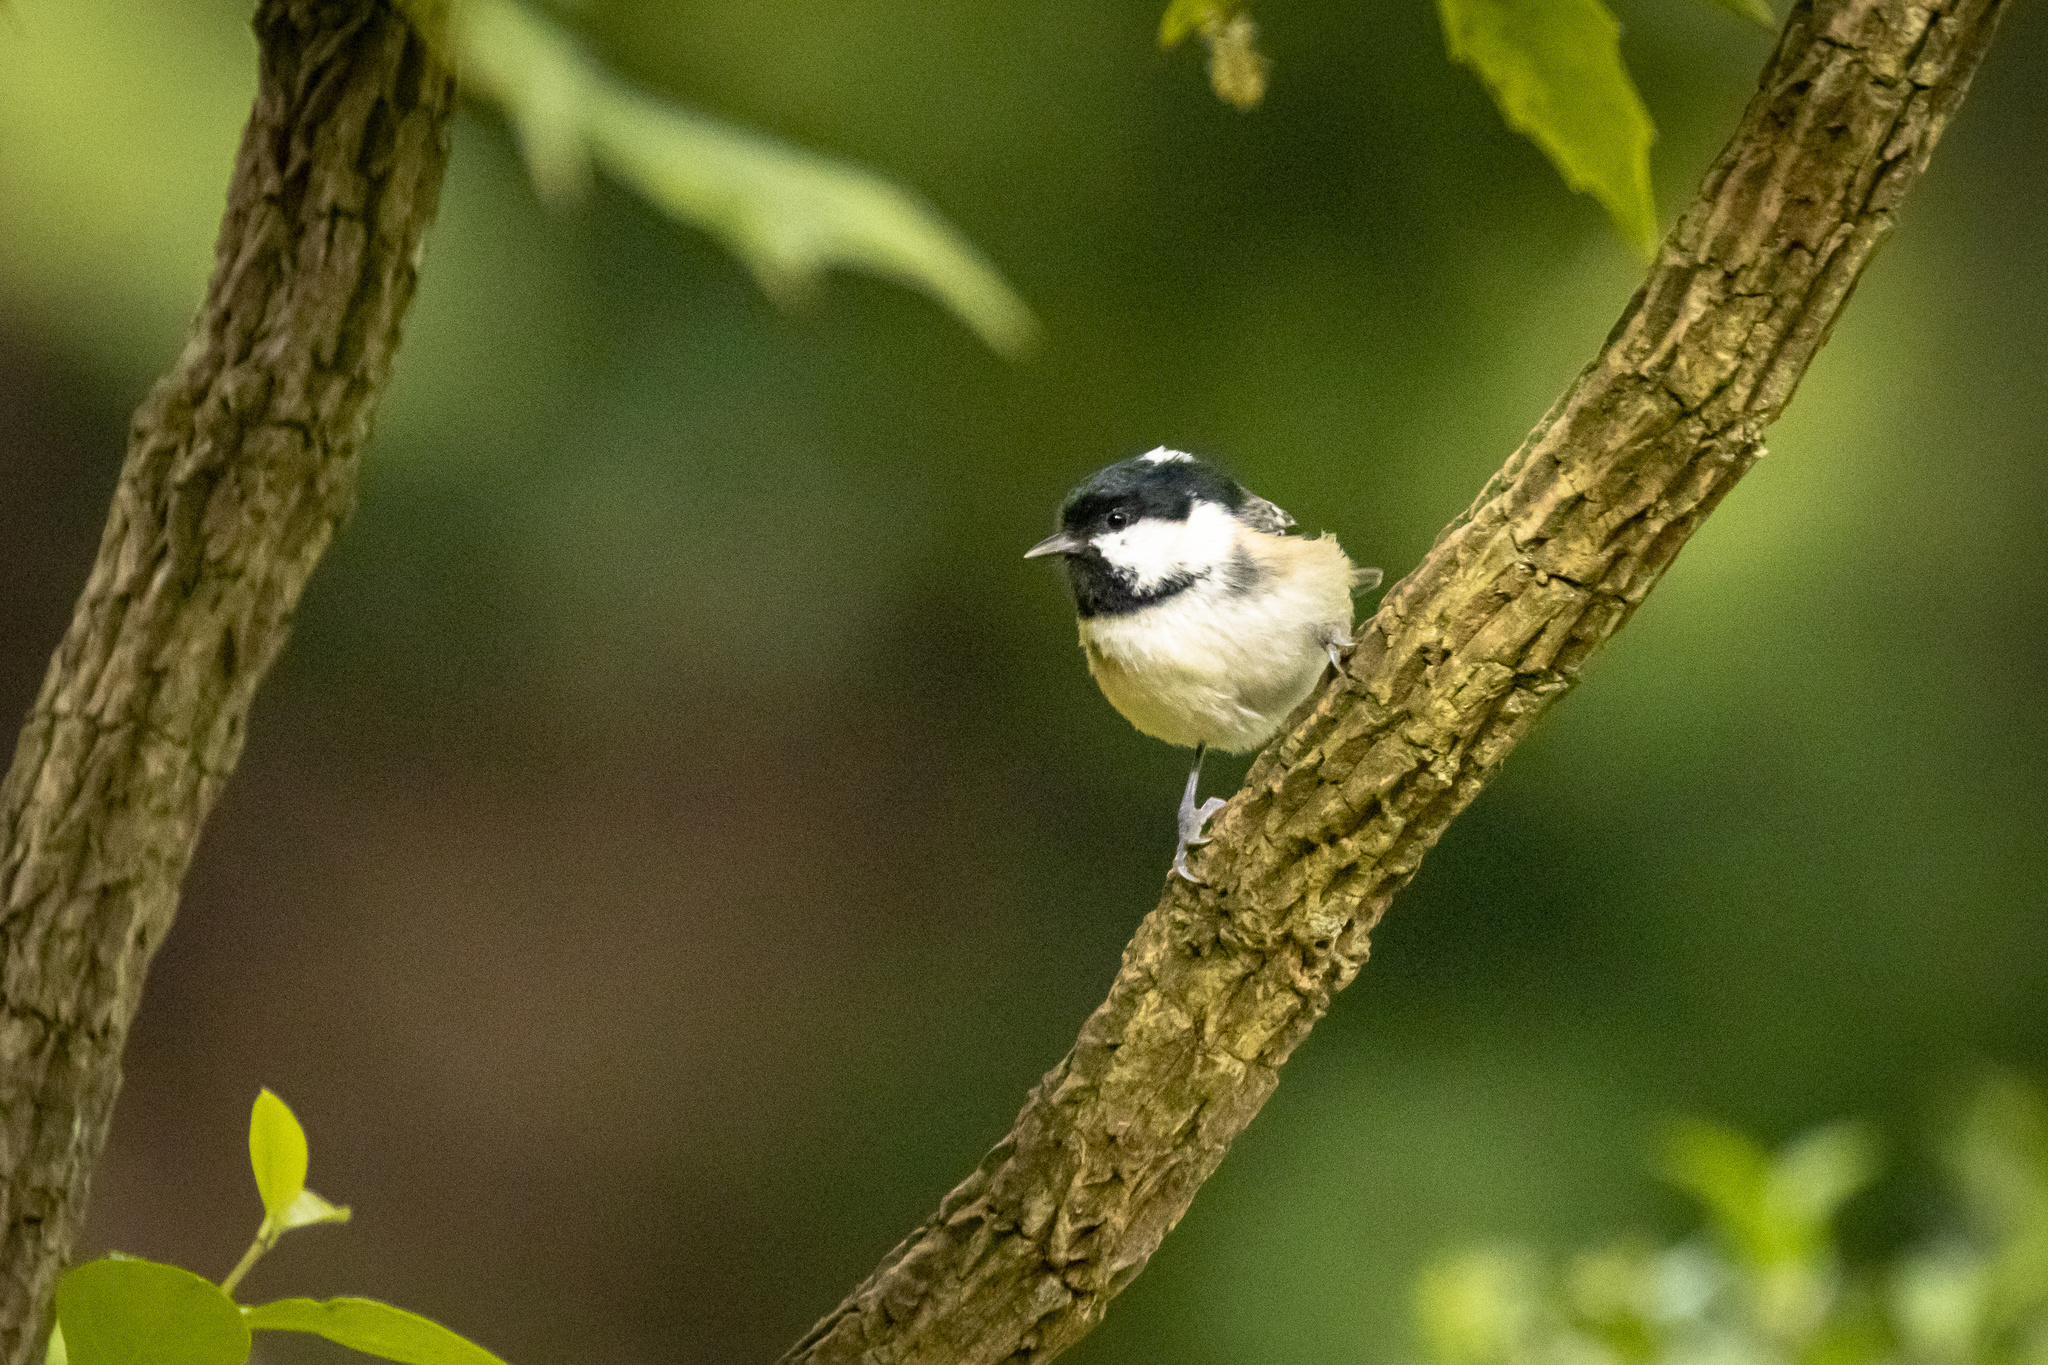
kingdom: Animalia
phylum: Chordata
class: Aves
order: Passeriformes
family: Paridae
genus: Periparus
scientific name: Periparus ater
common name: Coal tit
